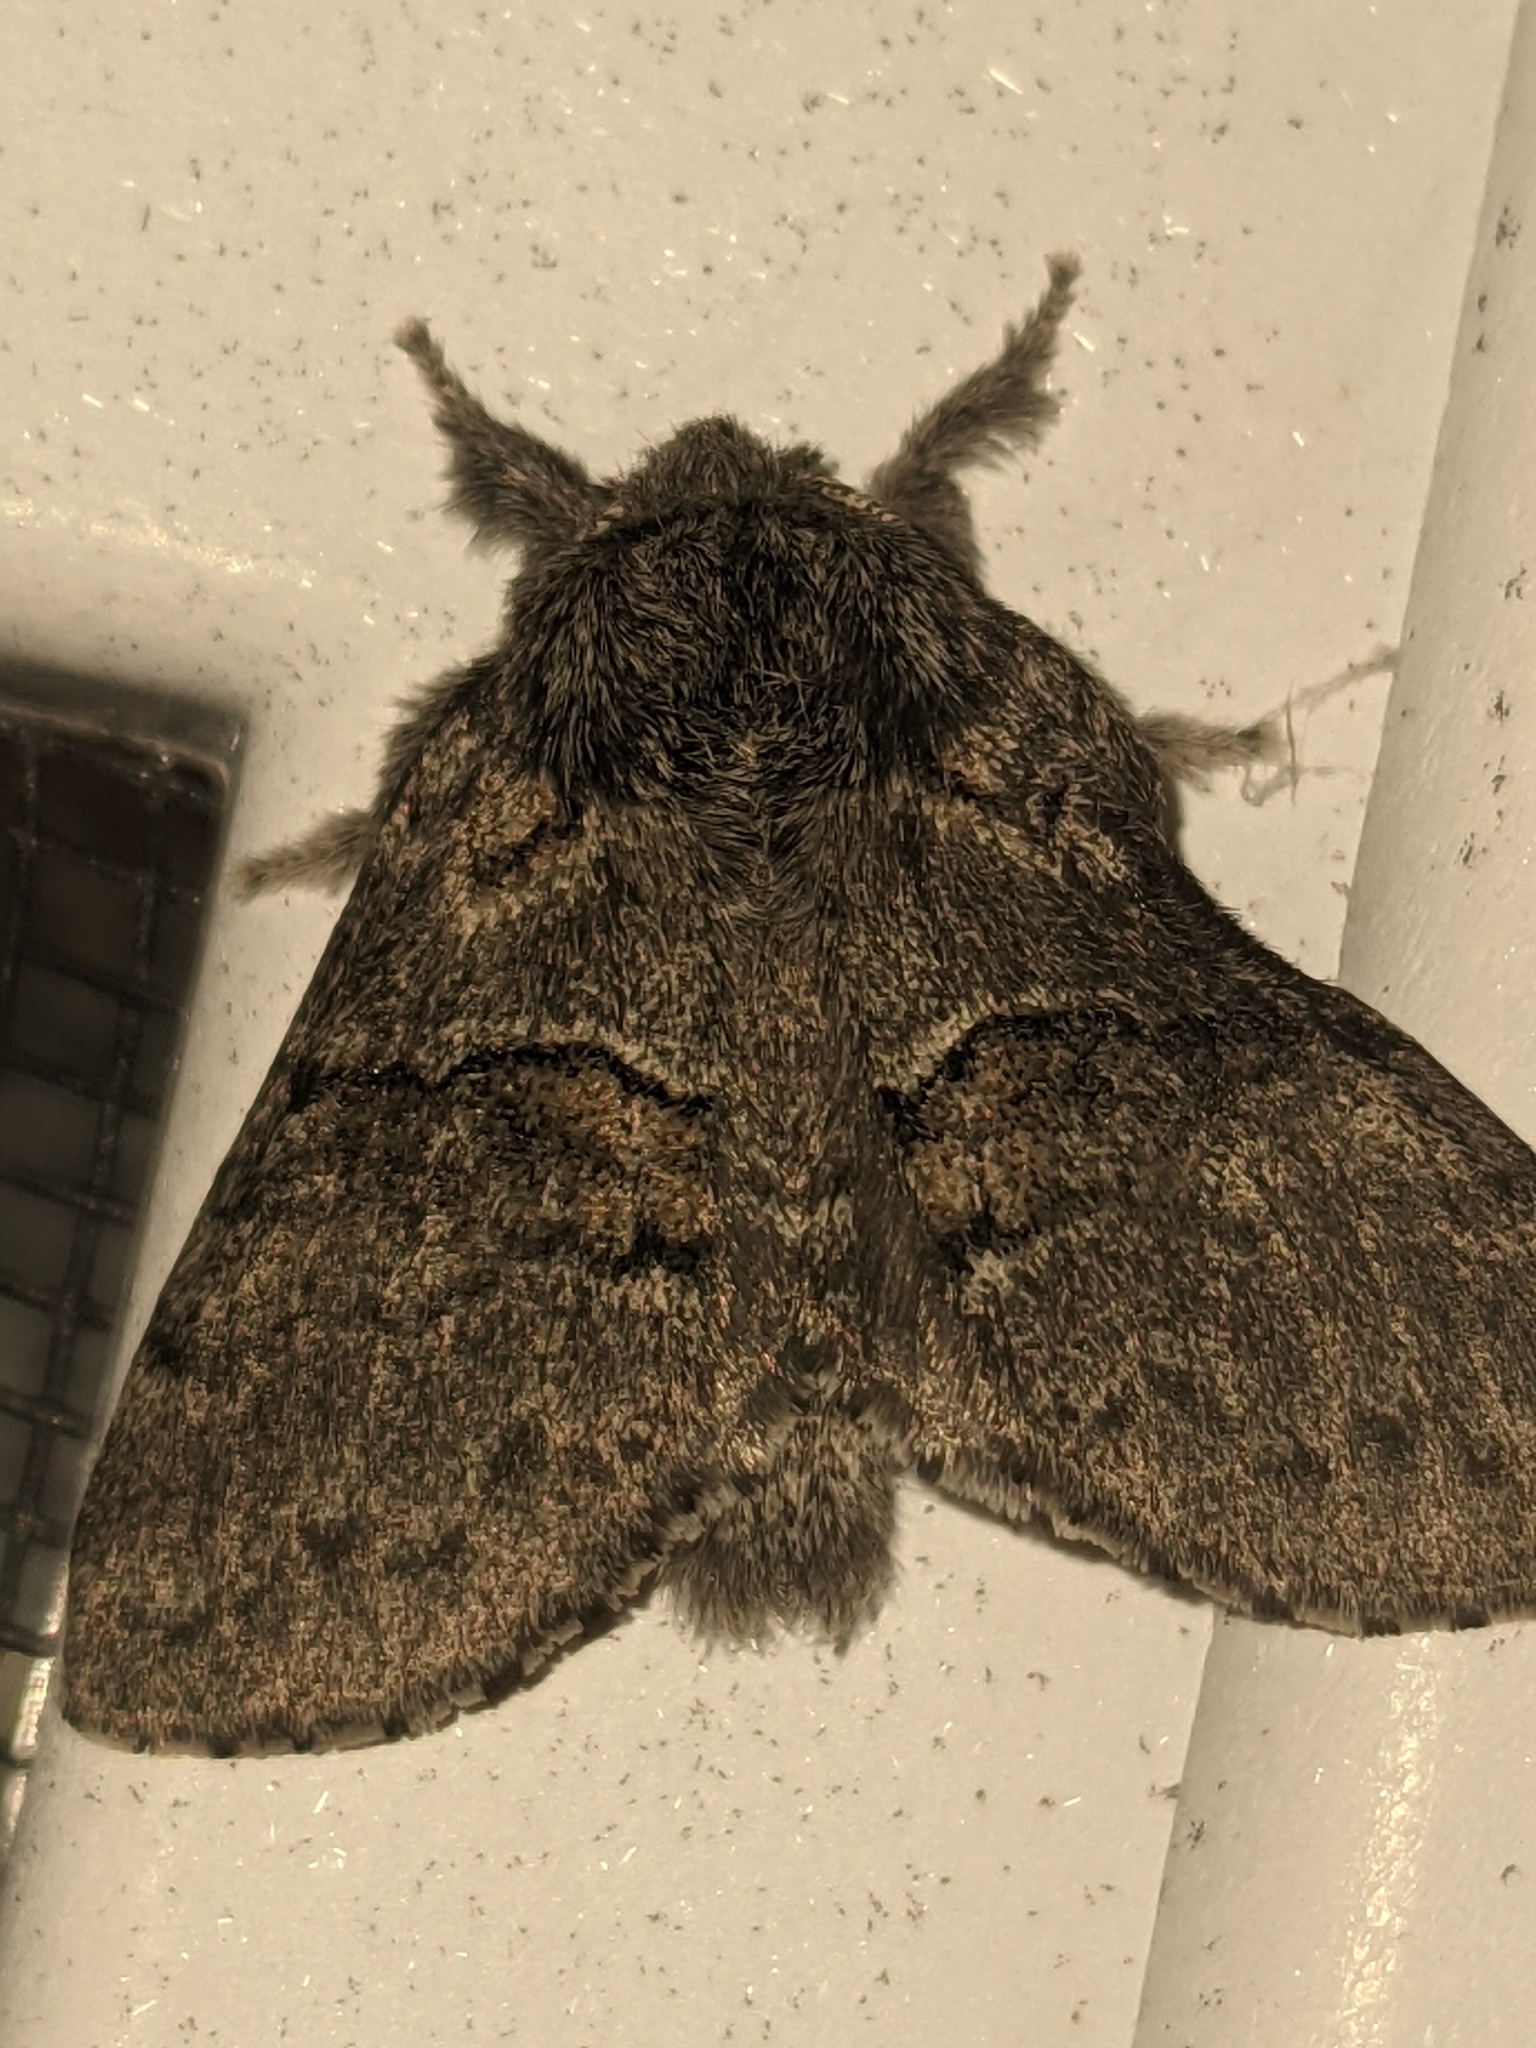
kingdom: Animalia
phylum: Arthropoda
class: Insecta
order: Lepidoptera
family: Notodontidae
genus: Gluphisia
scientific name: Gluphisia septentrionis
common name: Common gluphisia
